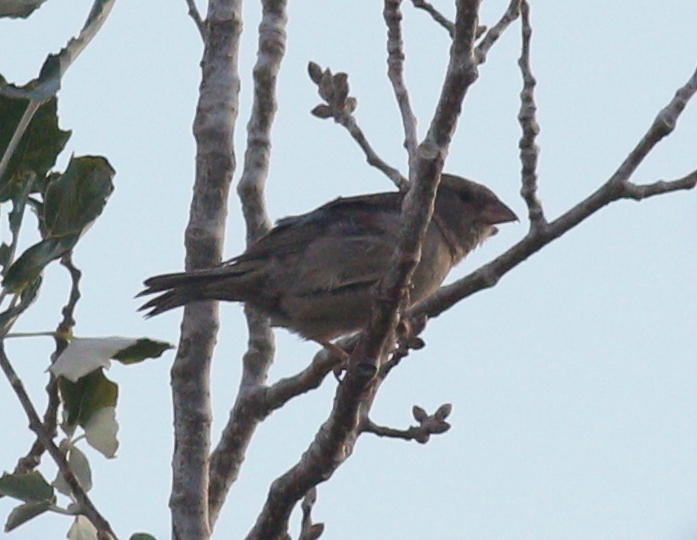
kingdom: Animalia
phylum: Chordata
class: Aves
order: Passeriformes
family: Passeridae
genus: Passer
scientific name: Passer domesticus
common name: House sparrow
